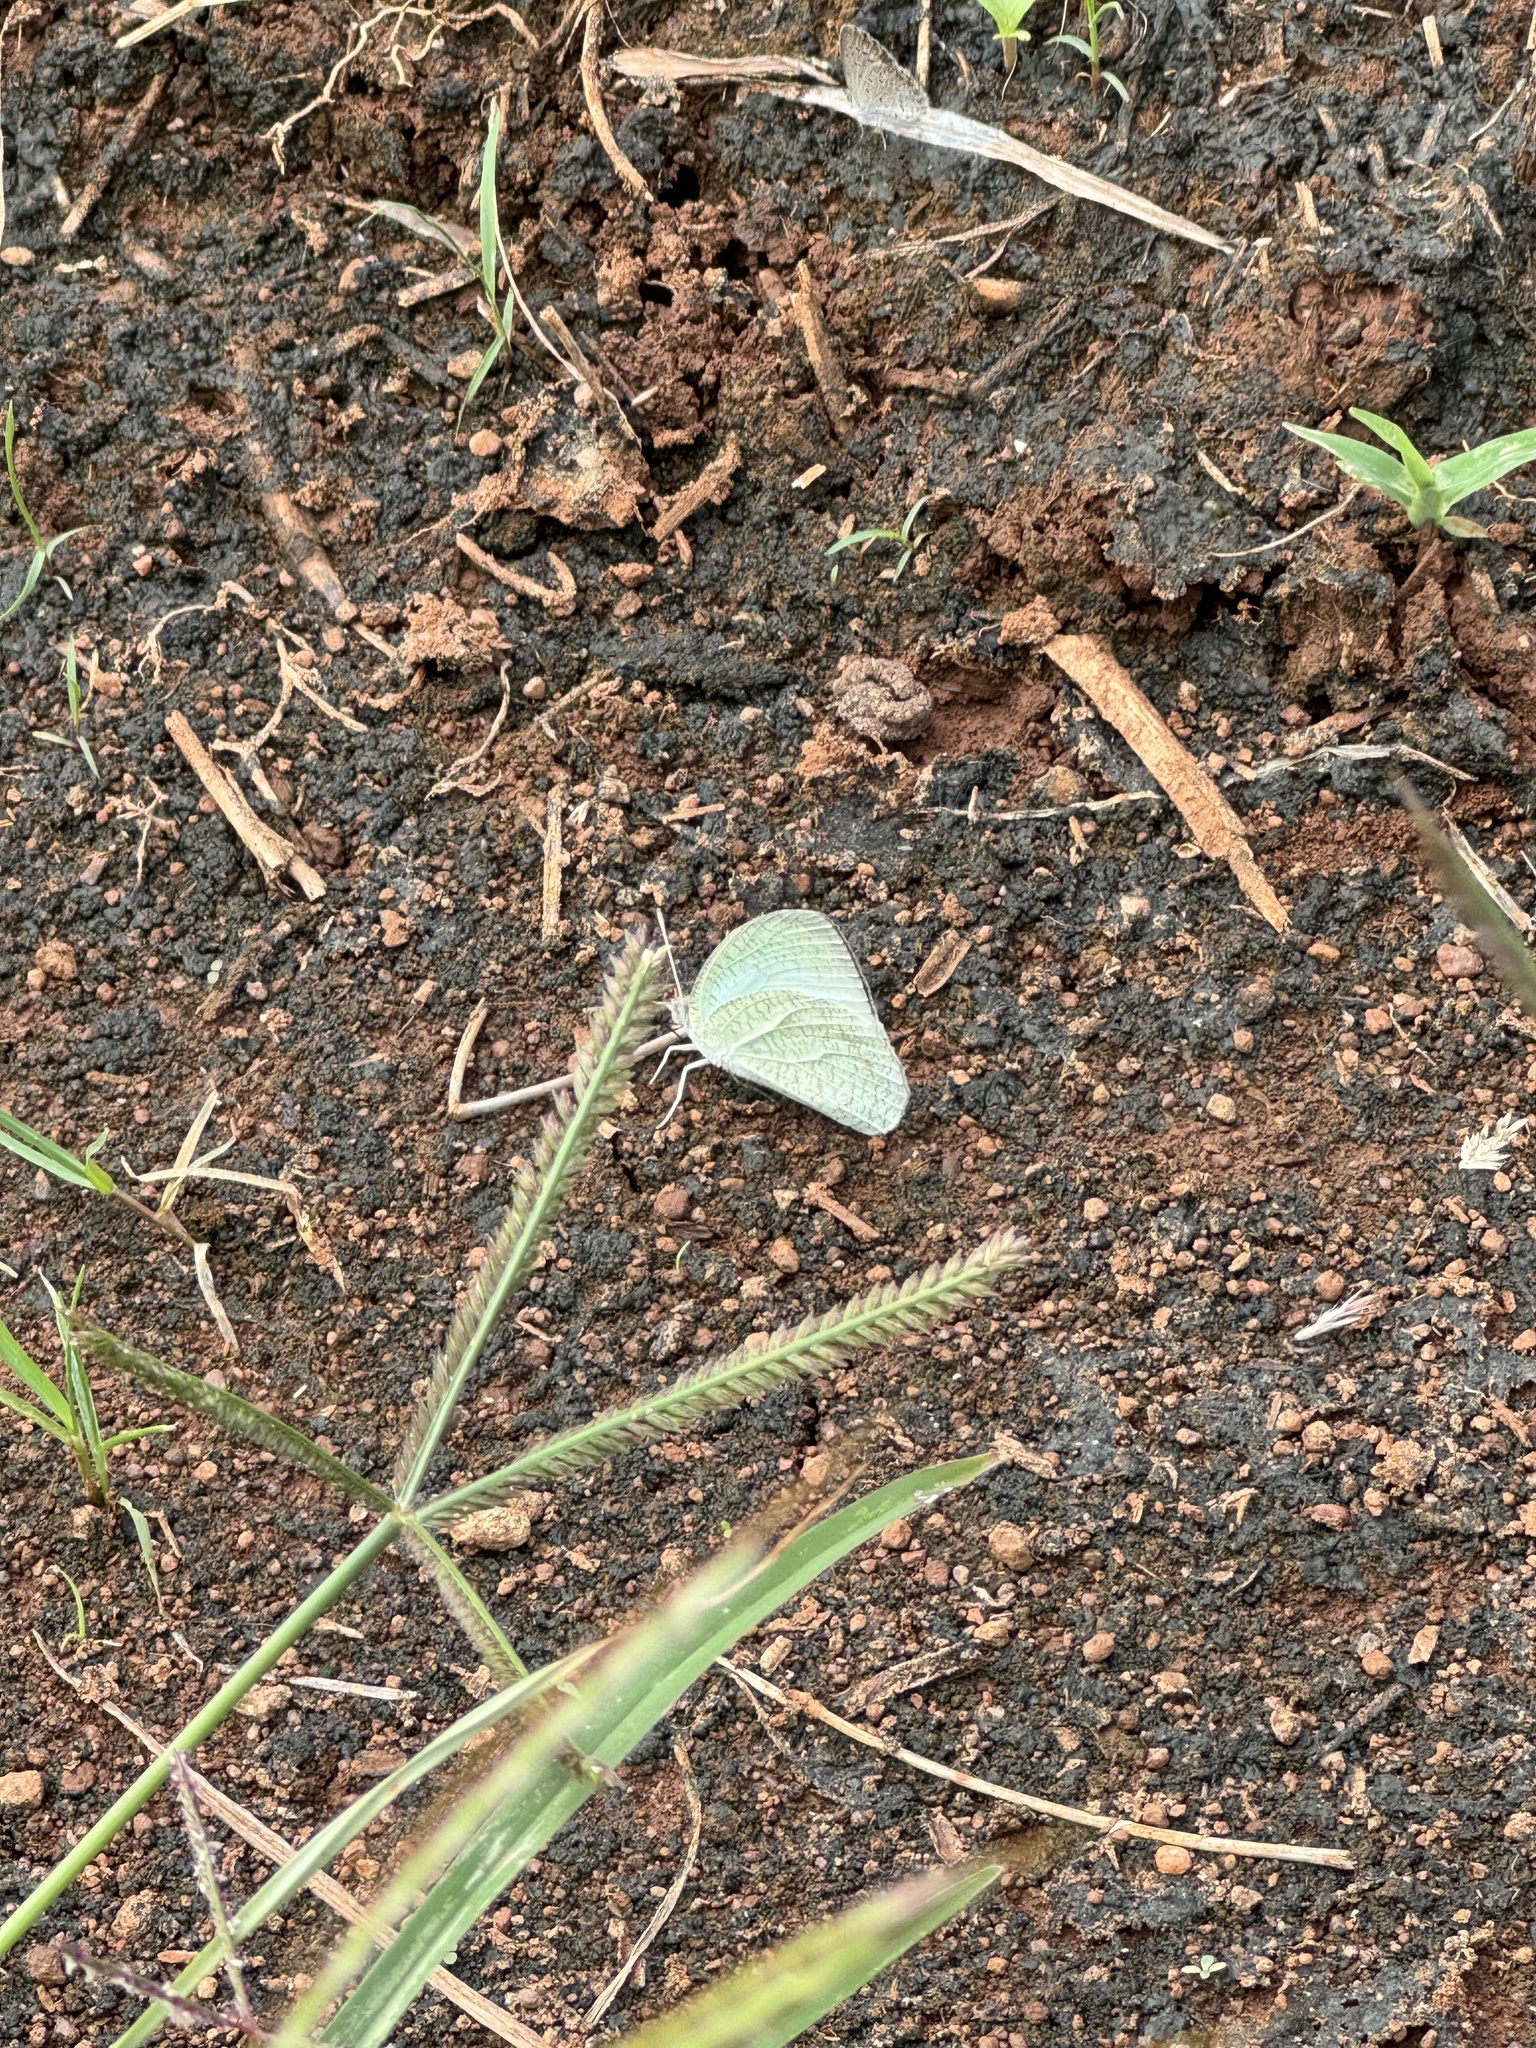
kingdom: Animalia
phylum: Arthropoda
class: Insecta
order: Lepidoptera
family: Pieridae
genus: Catopsilia
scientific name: Catopsilia pyranthe
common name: Mottled emigrant
